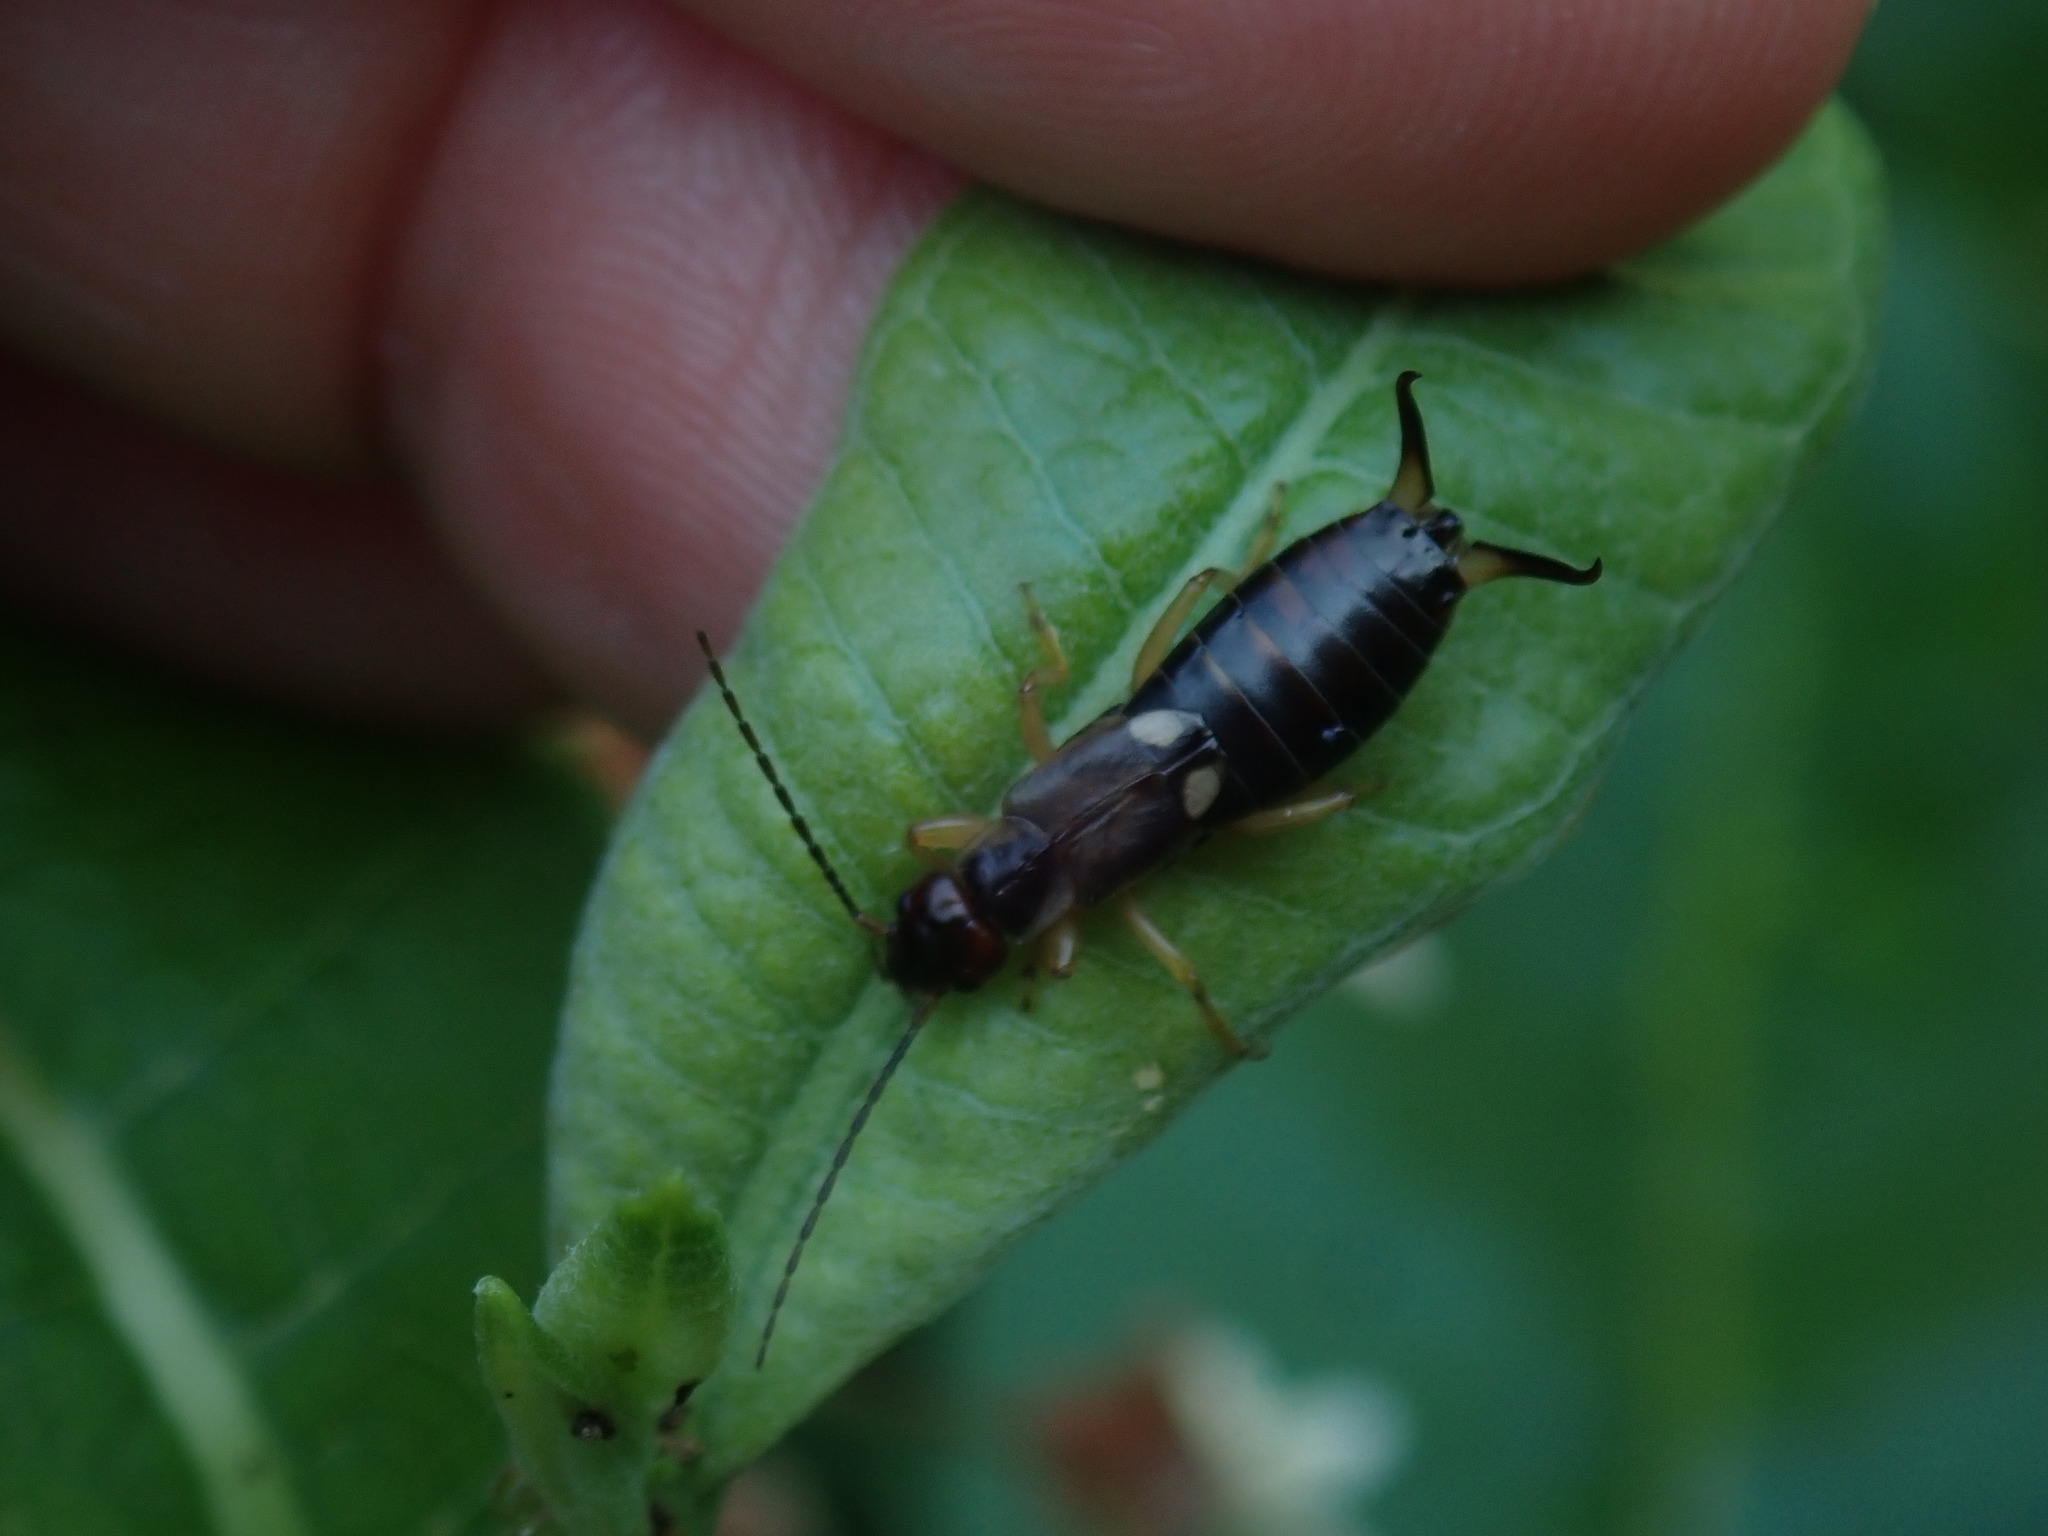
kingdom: Animalia
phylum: Arthropoda
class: Insecta
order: Dermaptera
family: Forficulidae
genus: Forficula
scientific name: Forficula
